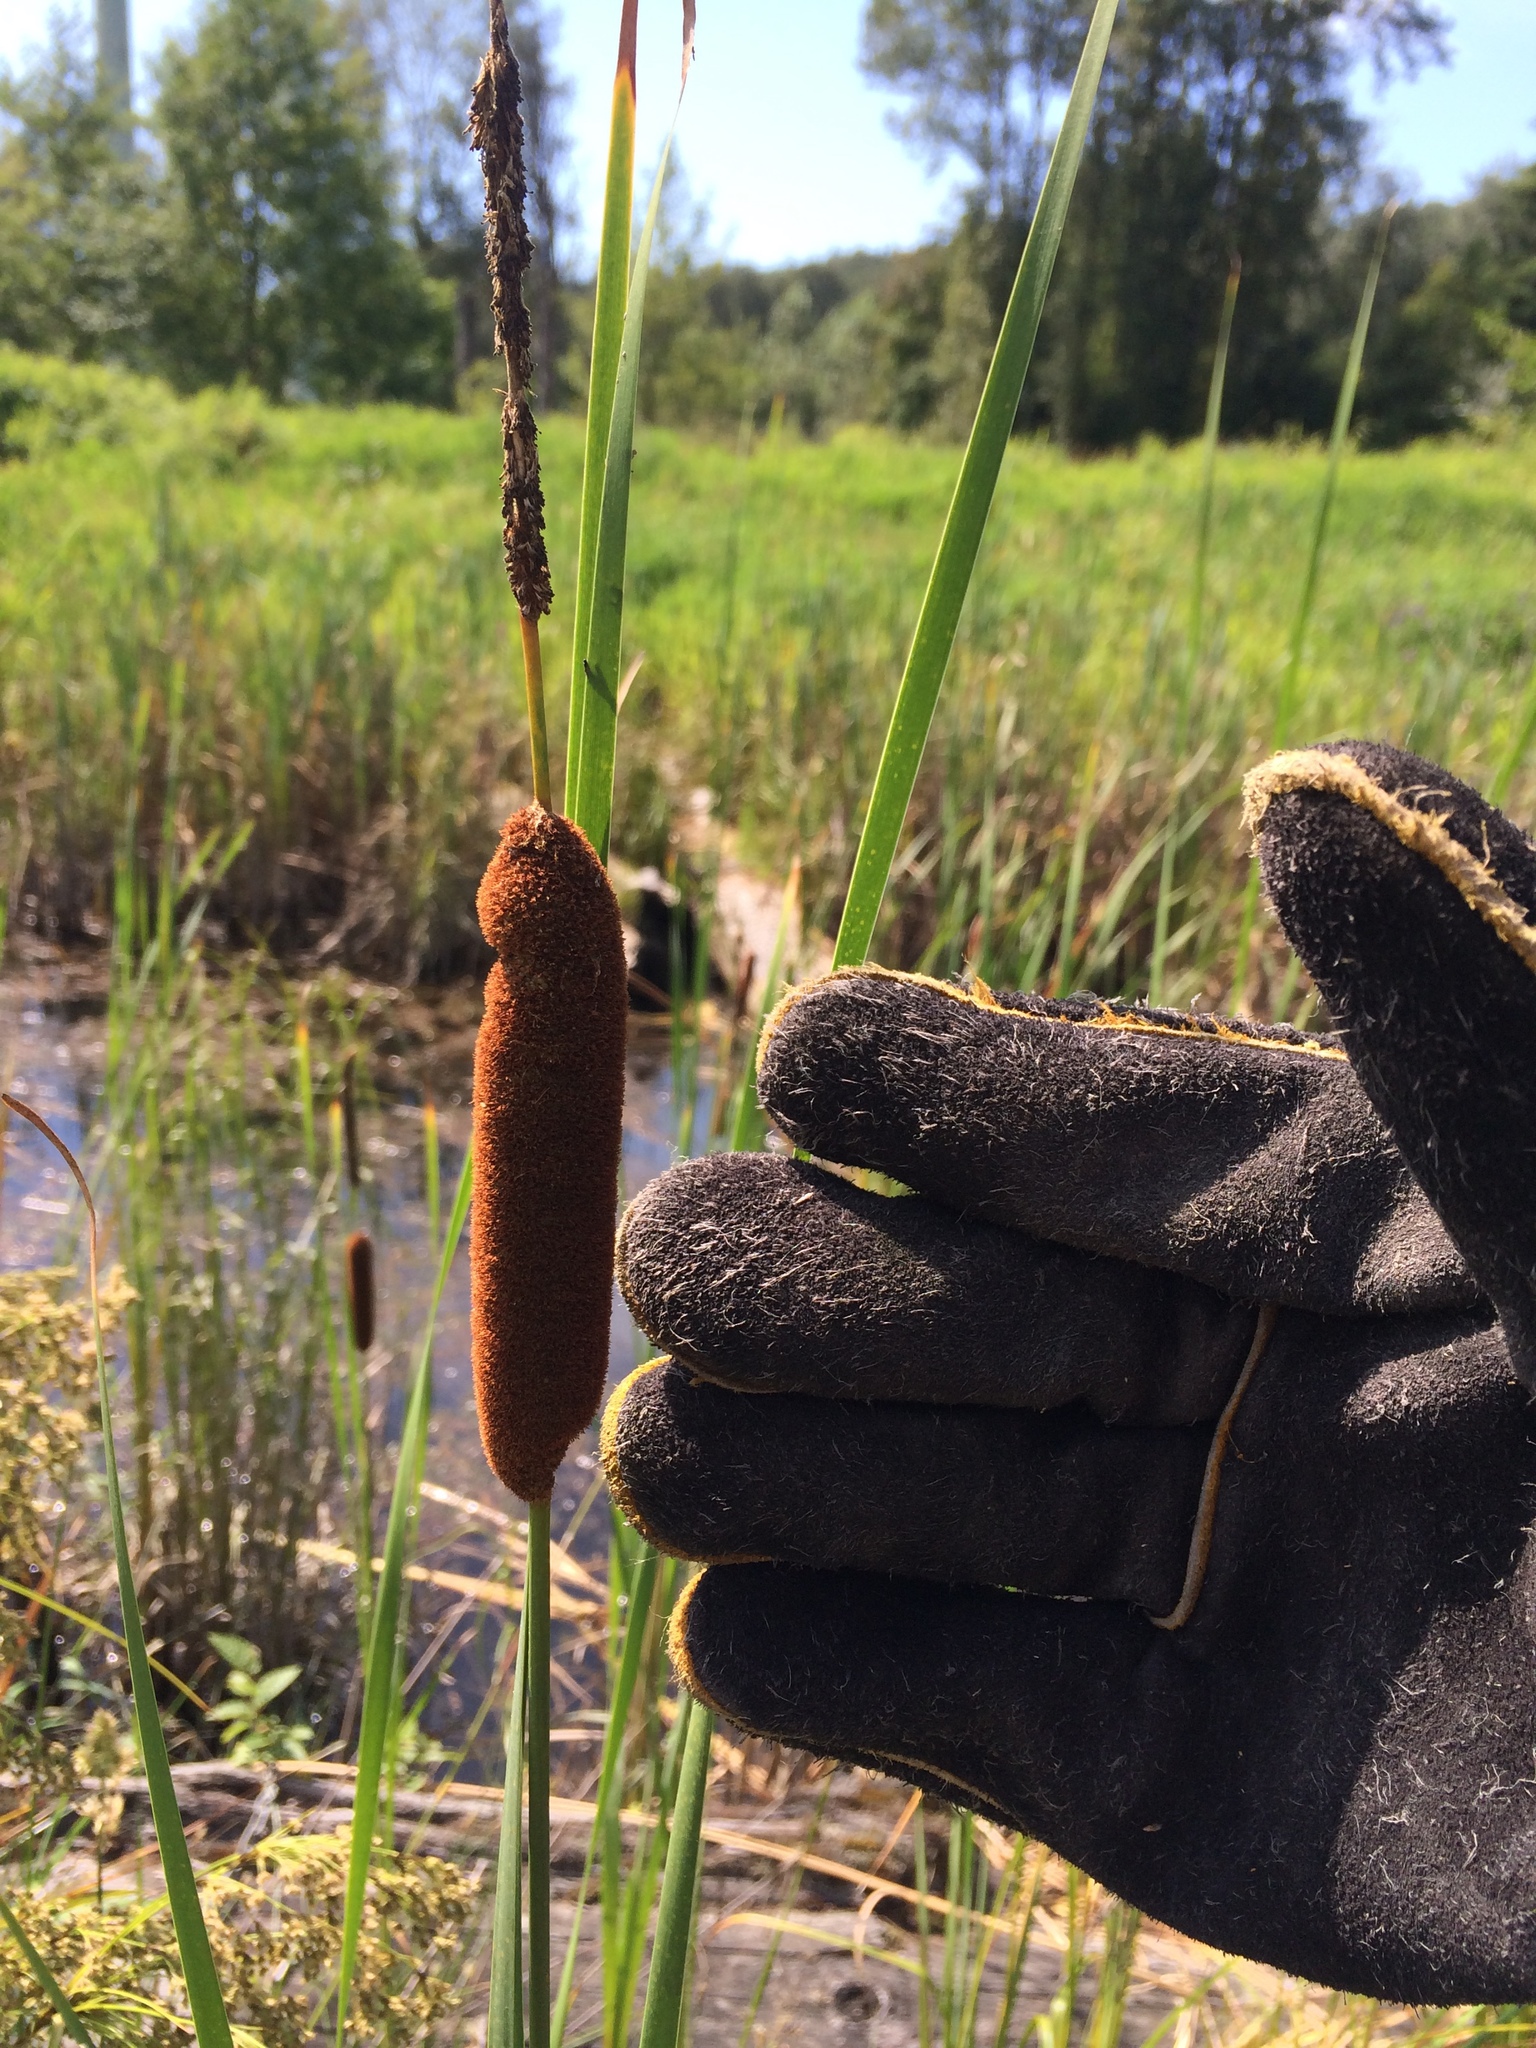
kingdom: Plantae
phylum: Tracheophyta
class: Liliopsida
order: Poales
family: Typhaceae
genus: Typha
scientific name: Typha angustifolia
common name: Lesser bulrush
